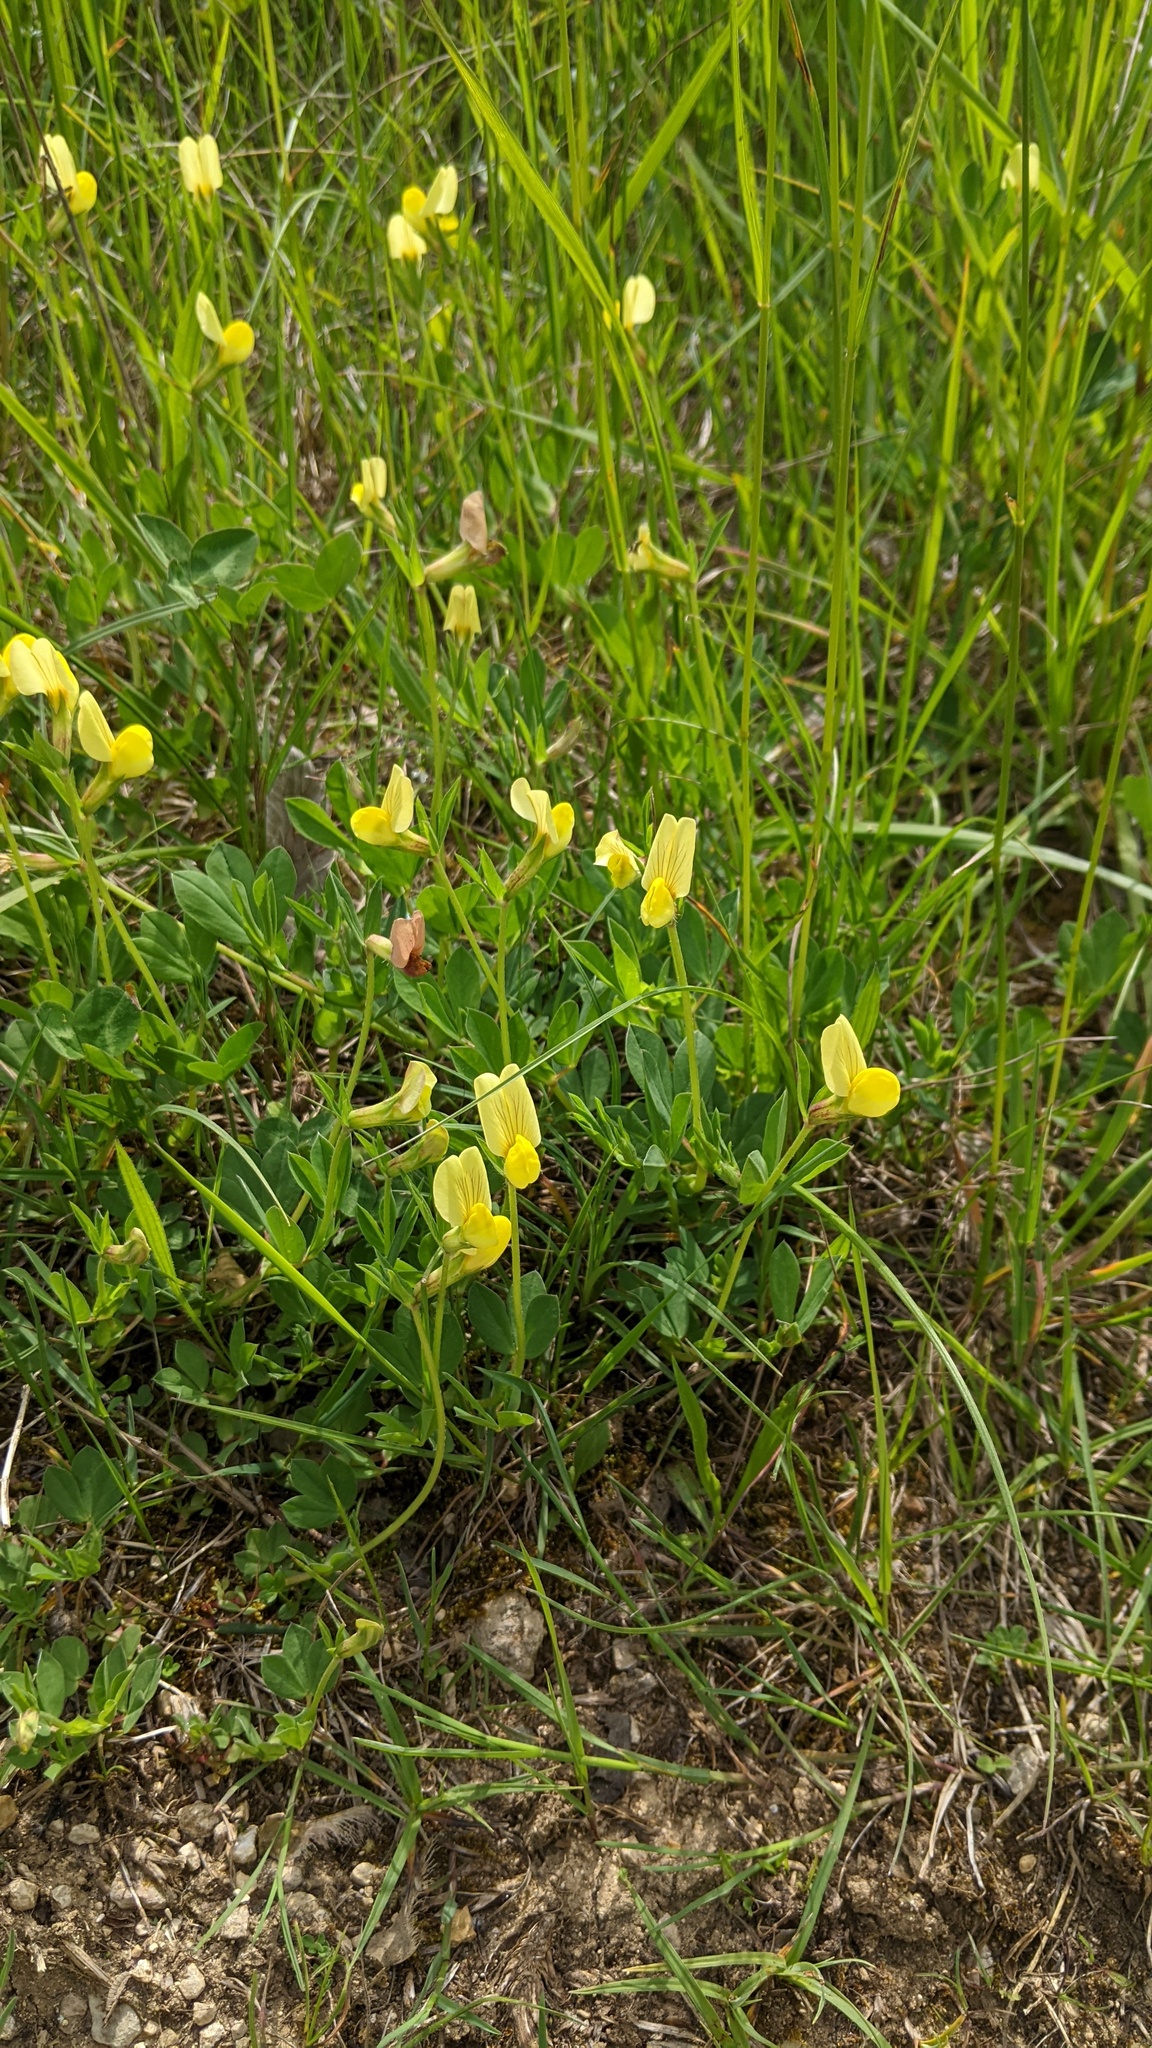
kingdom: Plantae
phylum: Tracheophyta
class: Magnoliopsida
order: Fabales
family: Fabaceae
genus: Lotus
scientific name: Lotus maritimus
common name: Dragon's-teeth
